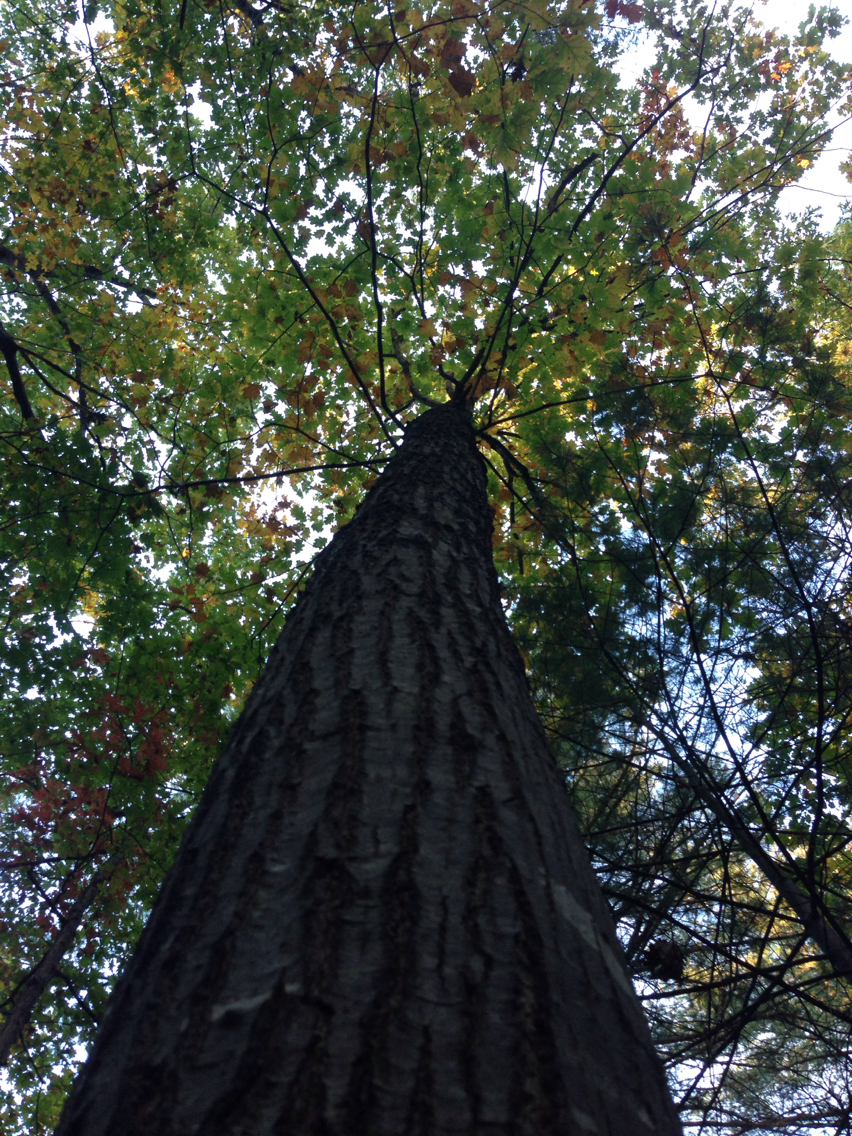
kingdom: Plantae
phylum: Tracheophyta
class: Magnoliopsida
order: Fagales
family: Fagaceae
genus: Quercus
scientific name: Quercus rubra
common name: Red oak
